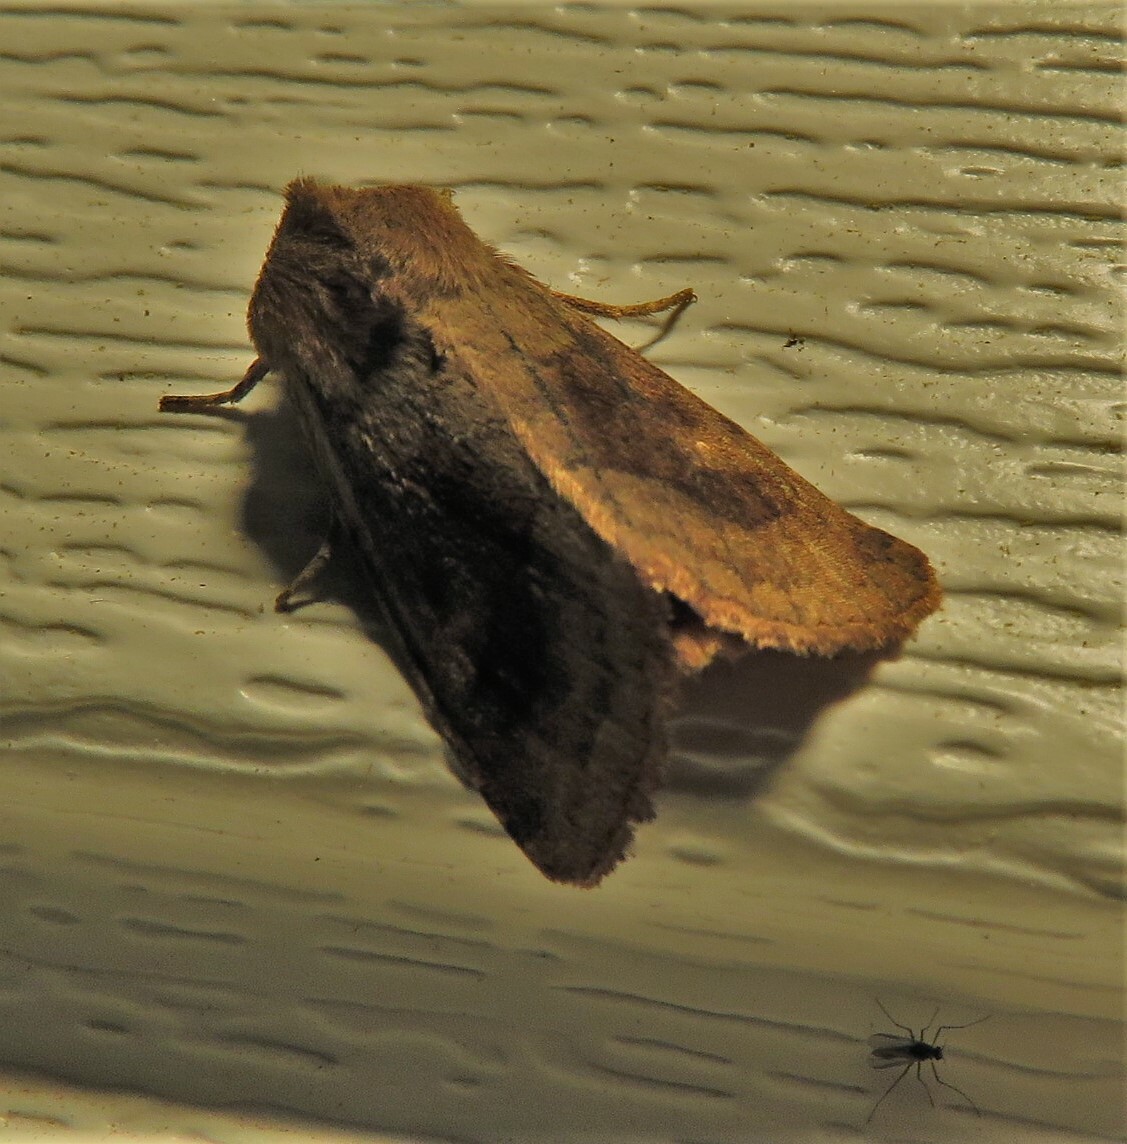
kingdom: Animalia
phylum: Arthropoda
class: Insecta
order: Lepidoptera
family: Noctuidae
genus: Nephelodes
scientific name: Nephelodes minians
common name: Bronzed cutworm
